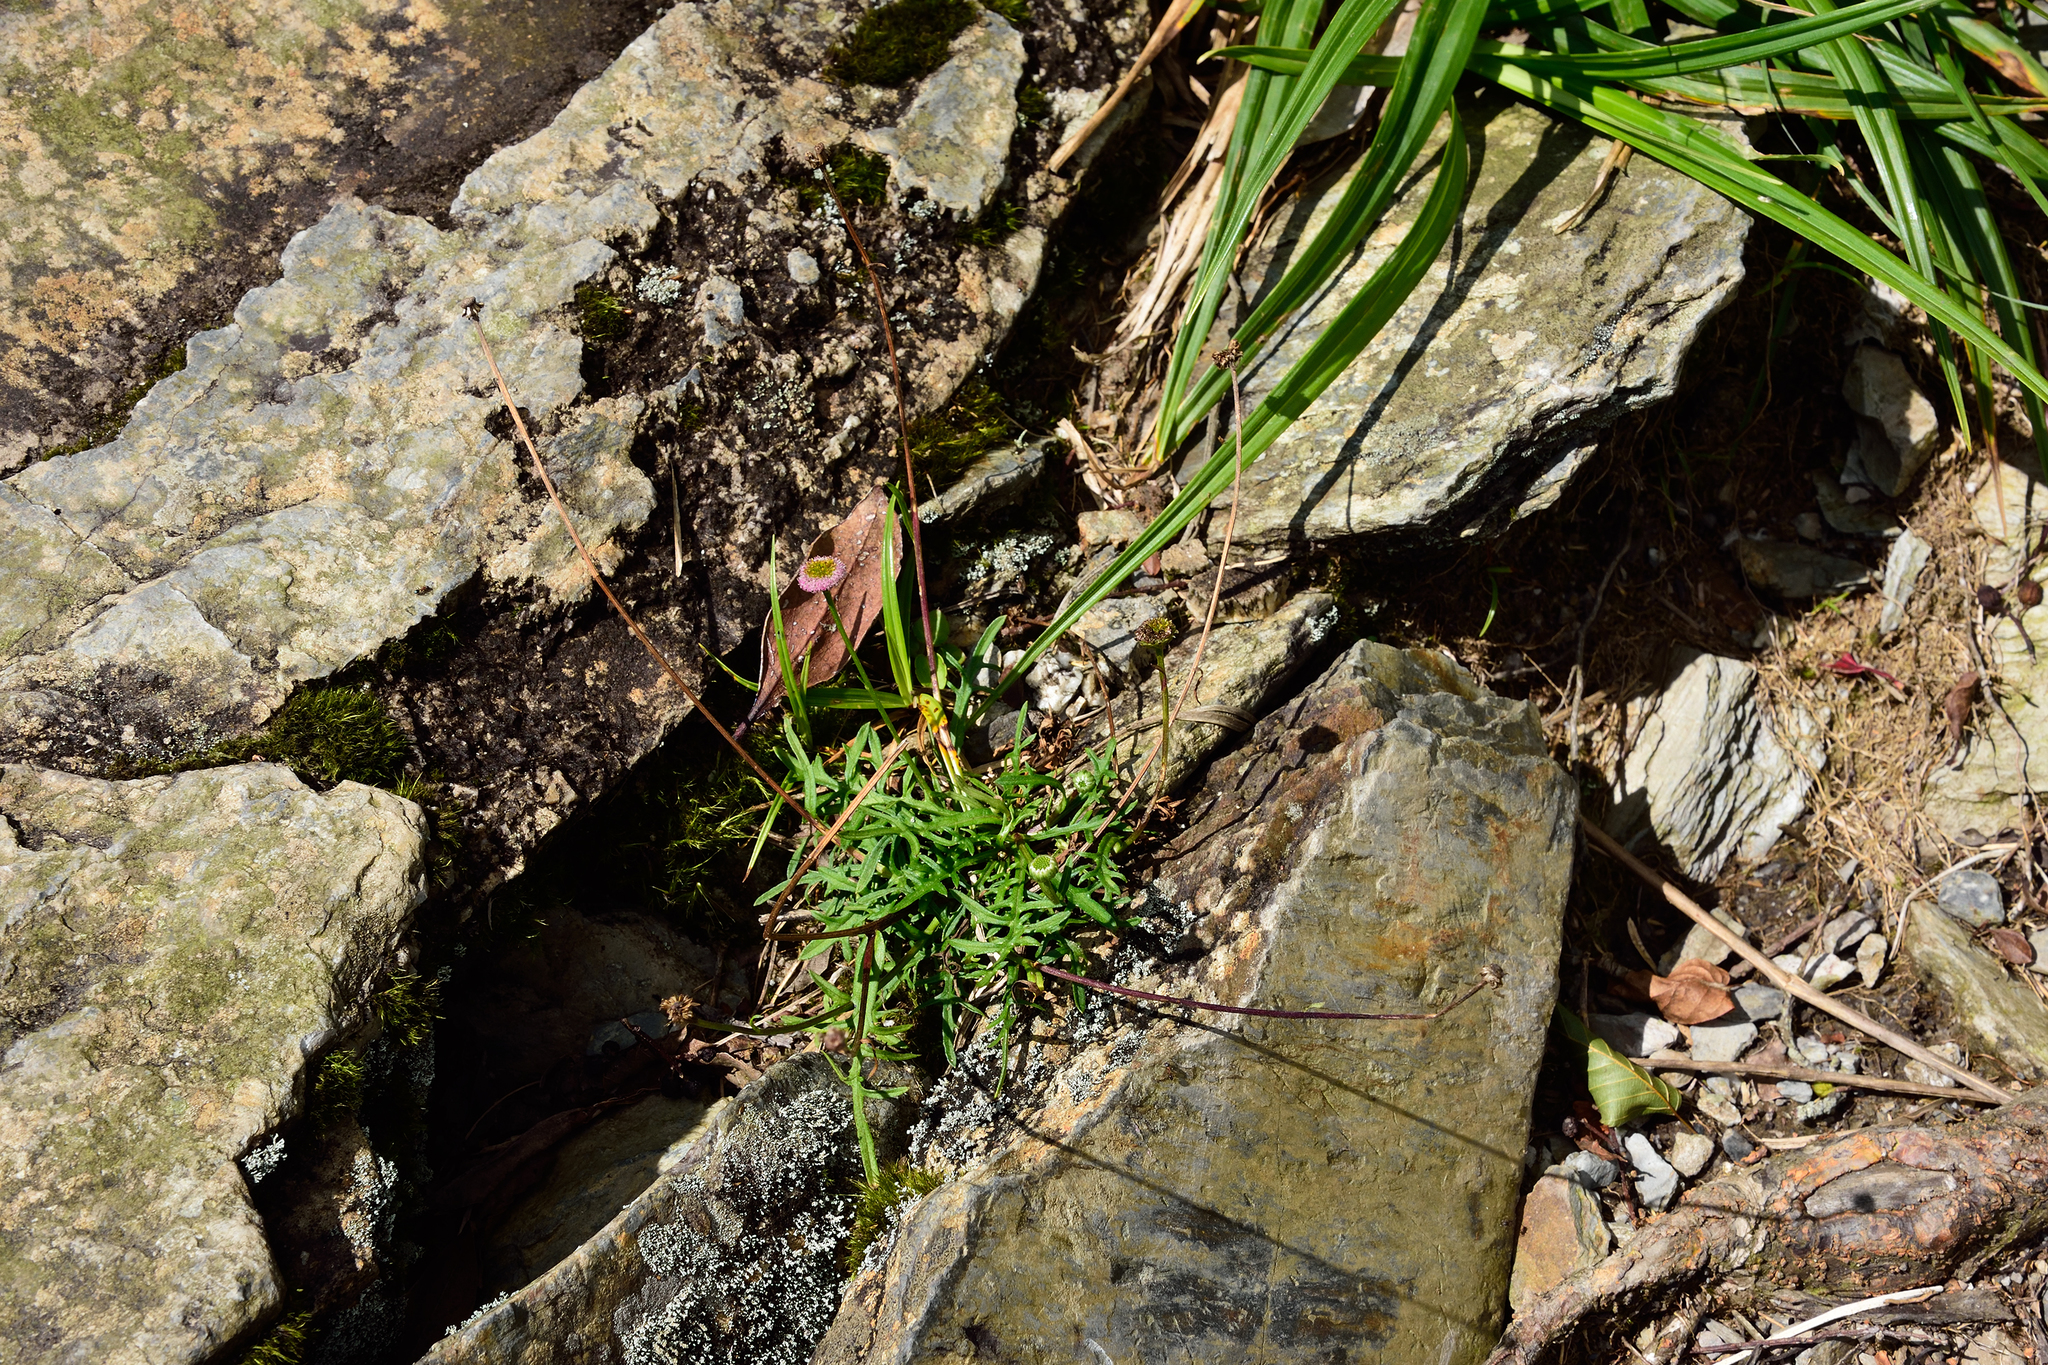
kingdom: Plantae
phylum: Tracheophyta
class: Magnoliopsida
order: Asterales
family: Asteraceae
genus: Myriactis
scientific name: Myriactis humilis
